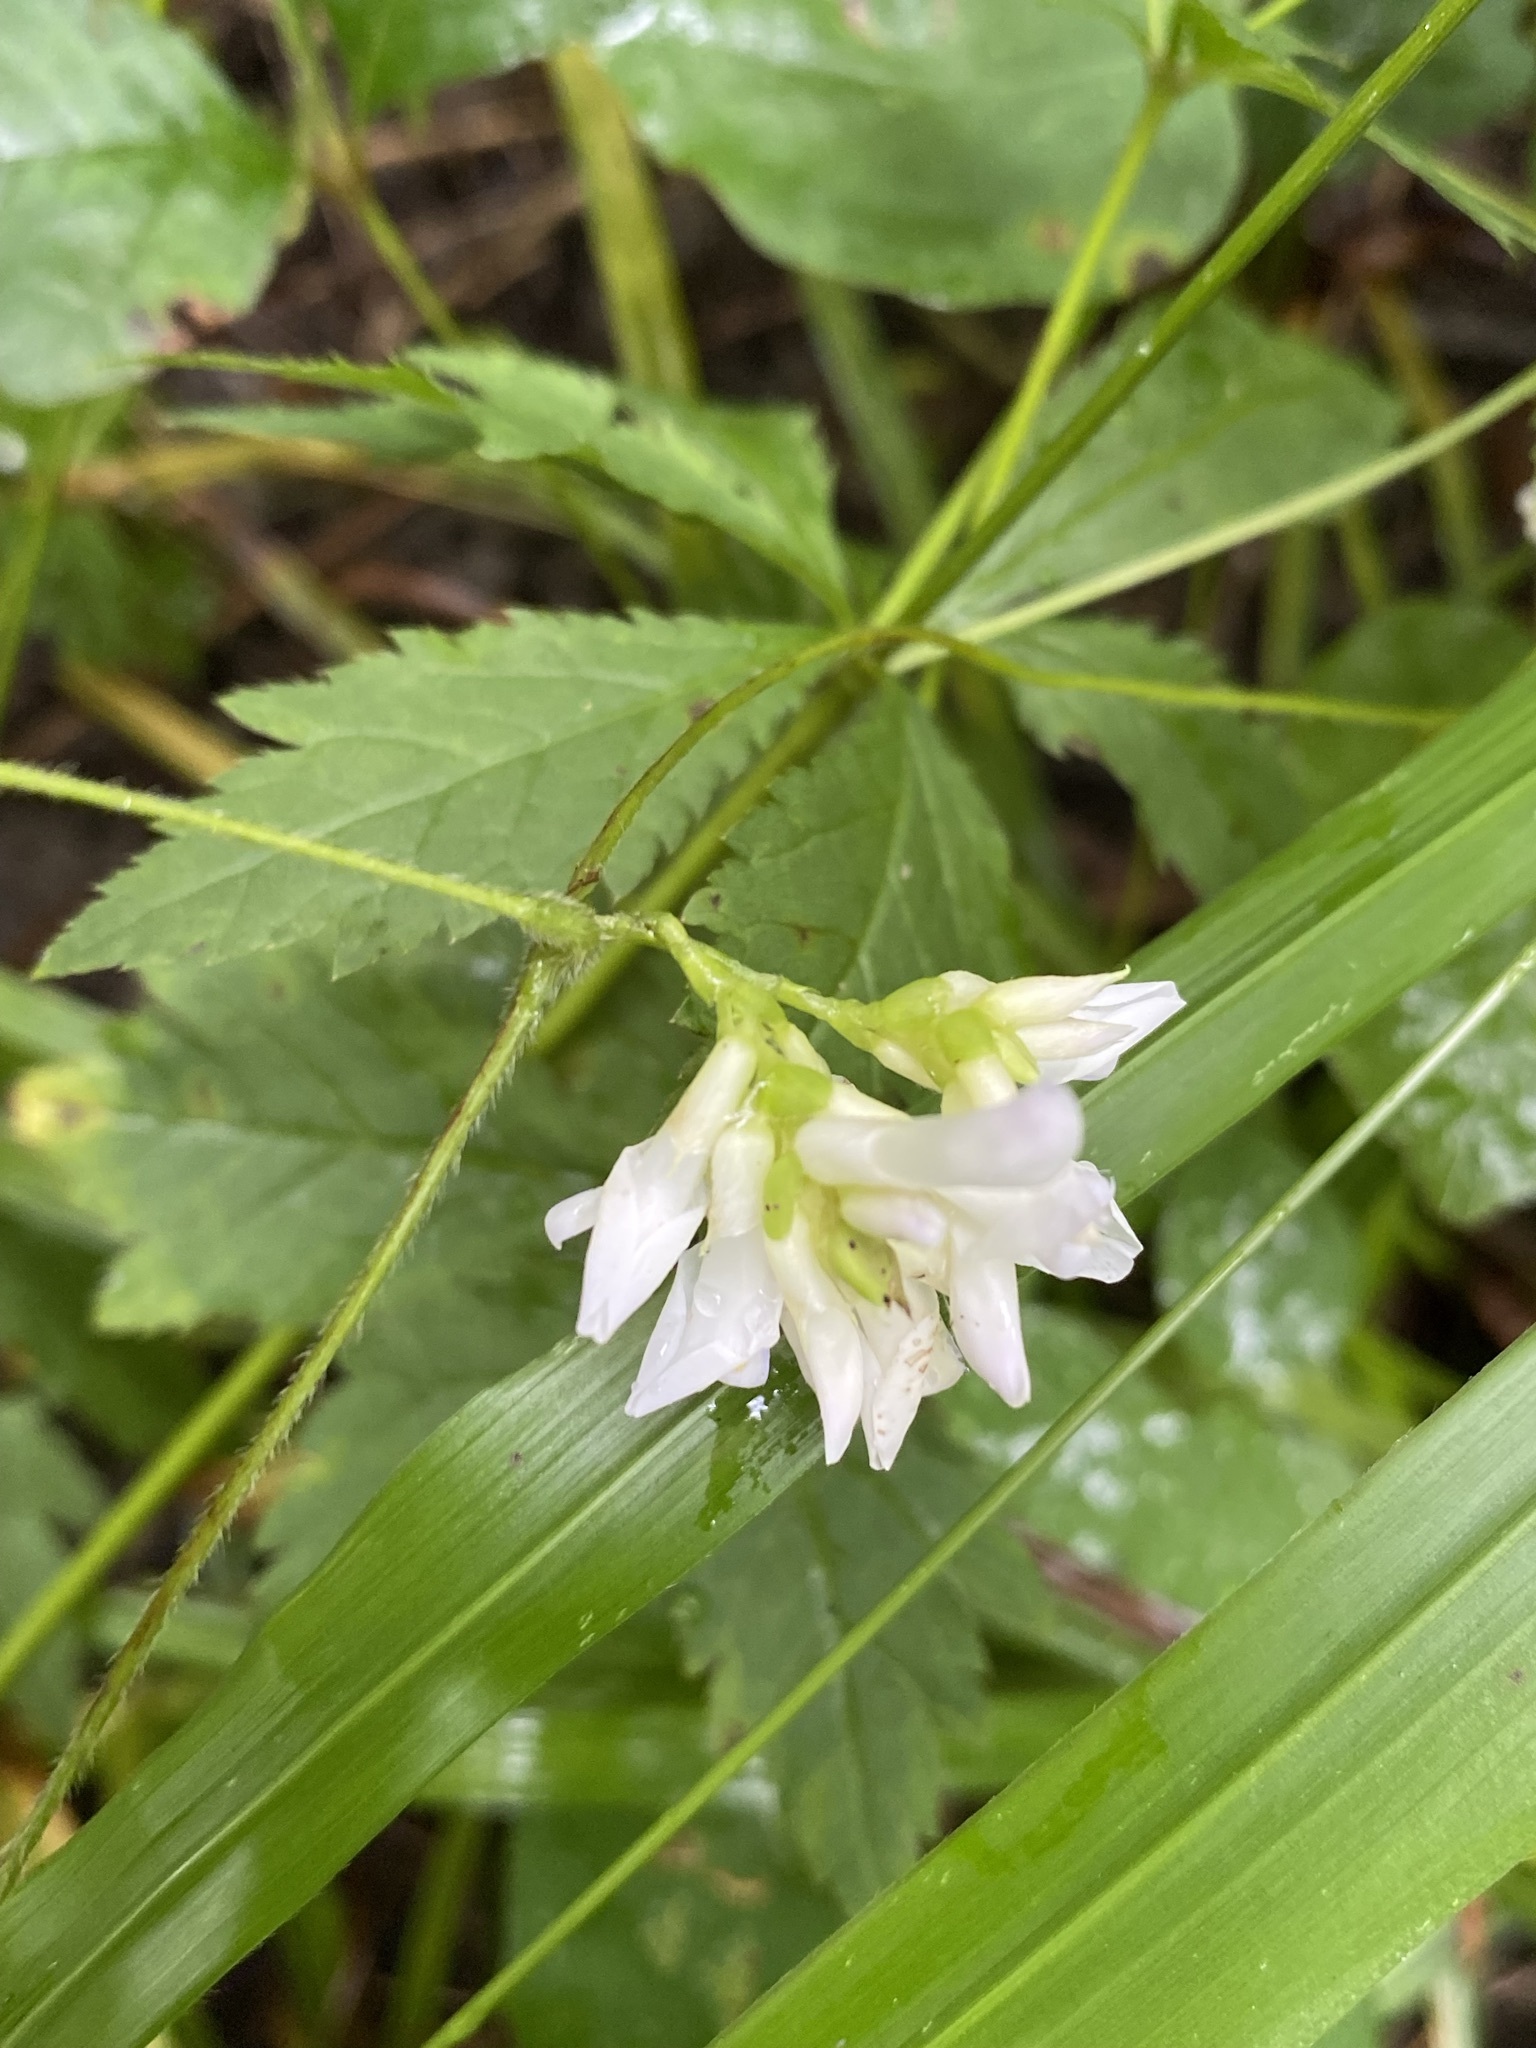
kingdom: Plantae
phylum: Tracheophyta
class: Magnoliopsida
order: Fabales
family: Fabaceae
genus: Amphicarpaea
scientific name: Amphicarpaea bracteata
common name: American hog peanut
